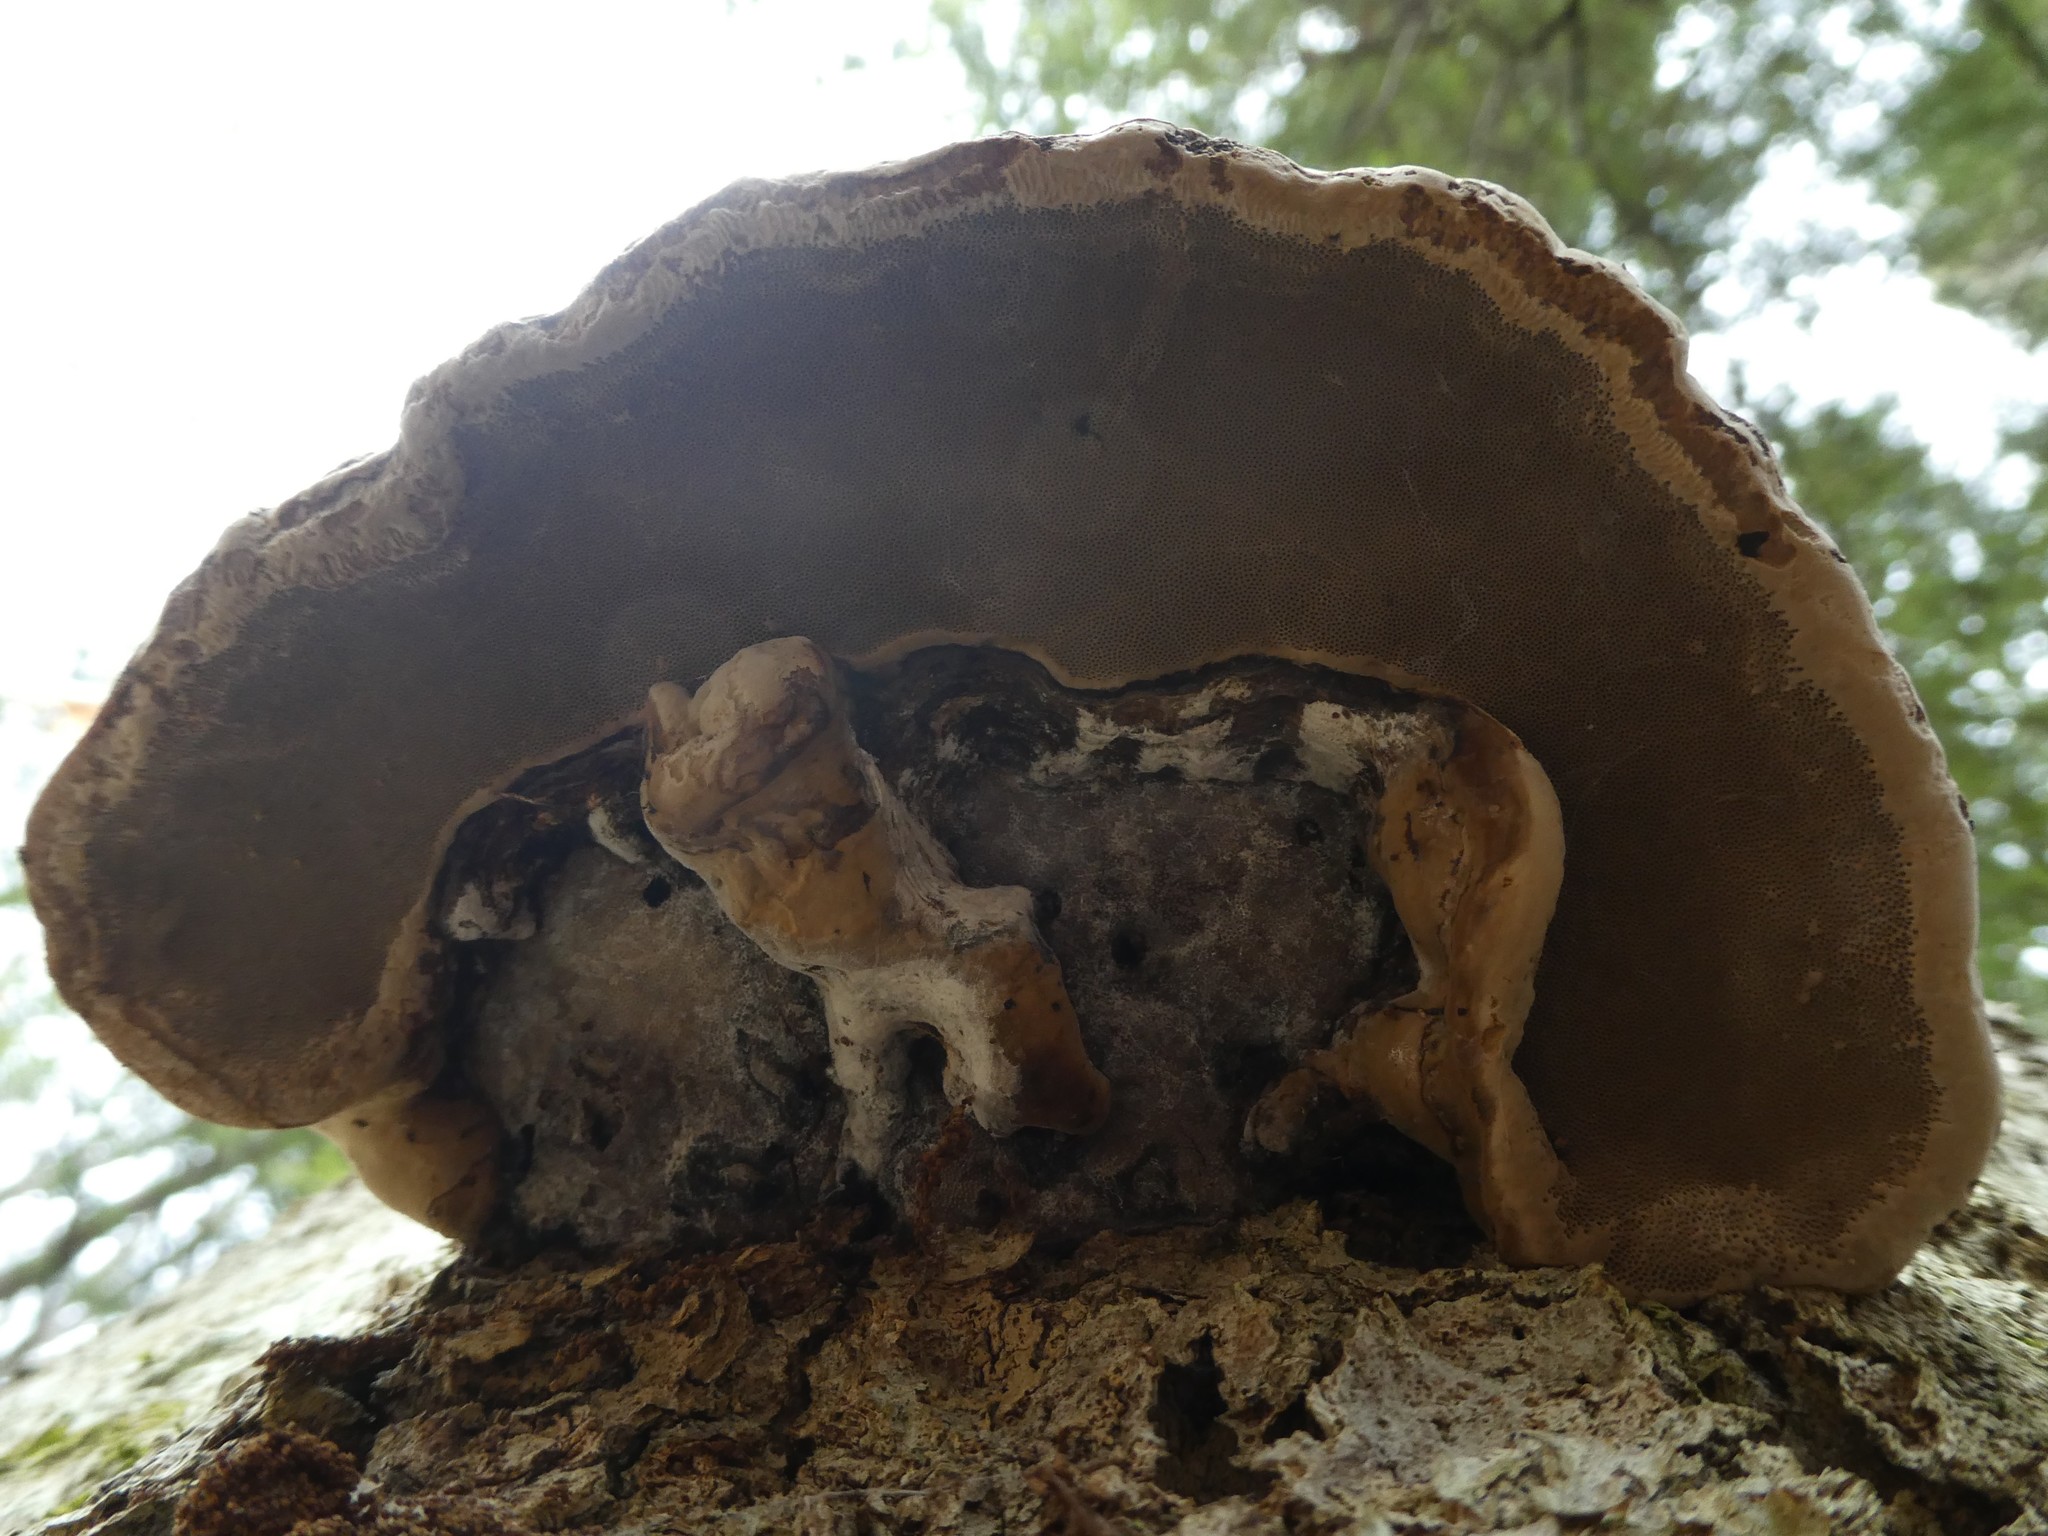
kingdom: Fungi
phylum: Basidiomycota
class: Agaricomycetes
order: Polyporales
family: Polyporaceae
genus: Fomes
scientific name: Fomes fomentarius
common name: Hoof fungus
